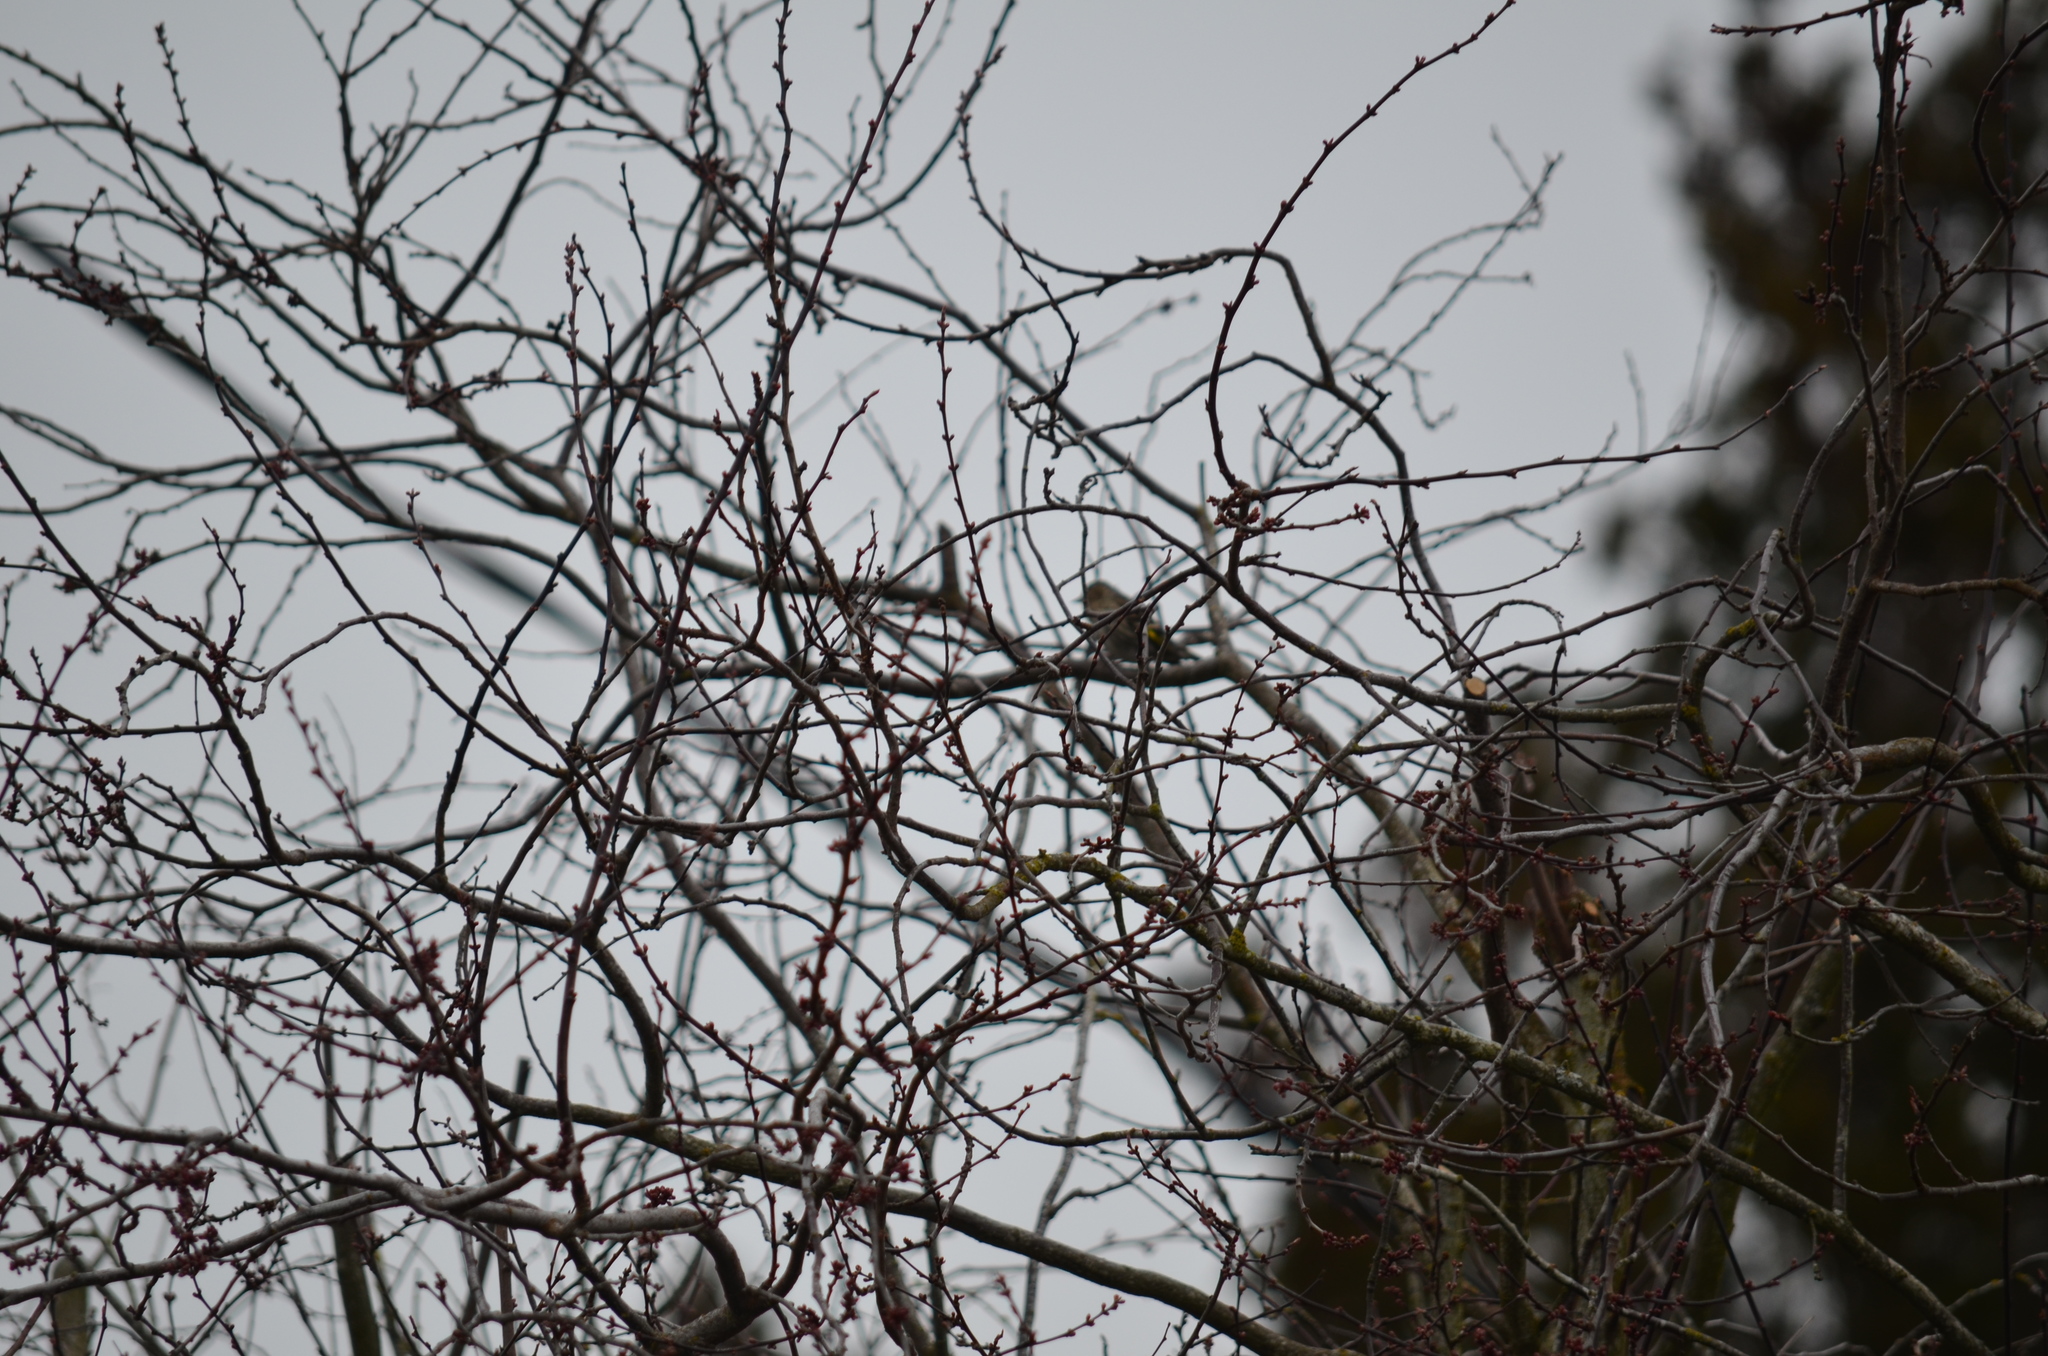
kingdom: Animalia
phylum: Chordata
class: Aves
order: Passeriformes
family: Fringillidae
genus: Spinus
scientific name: Spinus pinus
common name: Pine siskin
